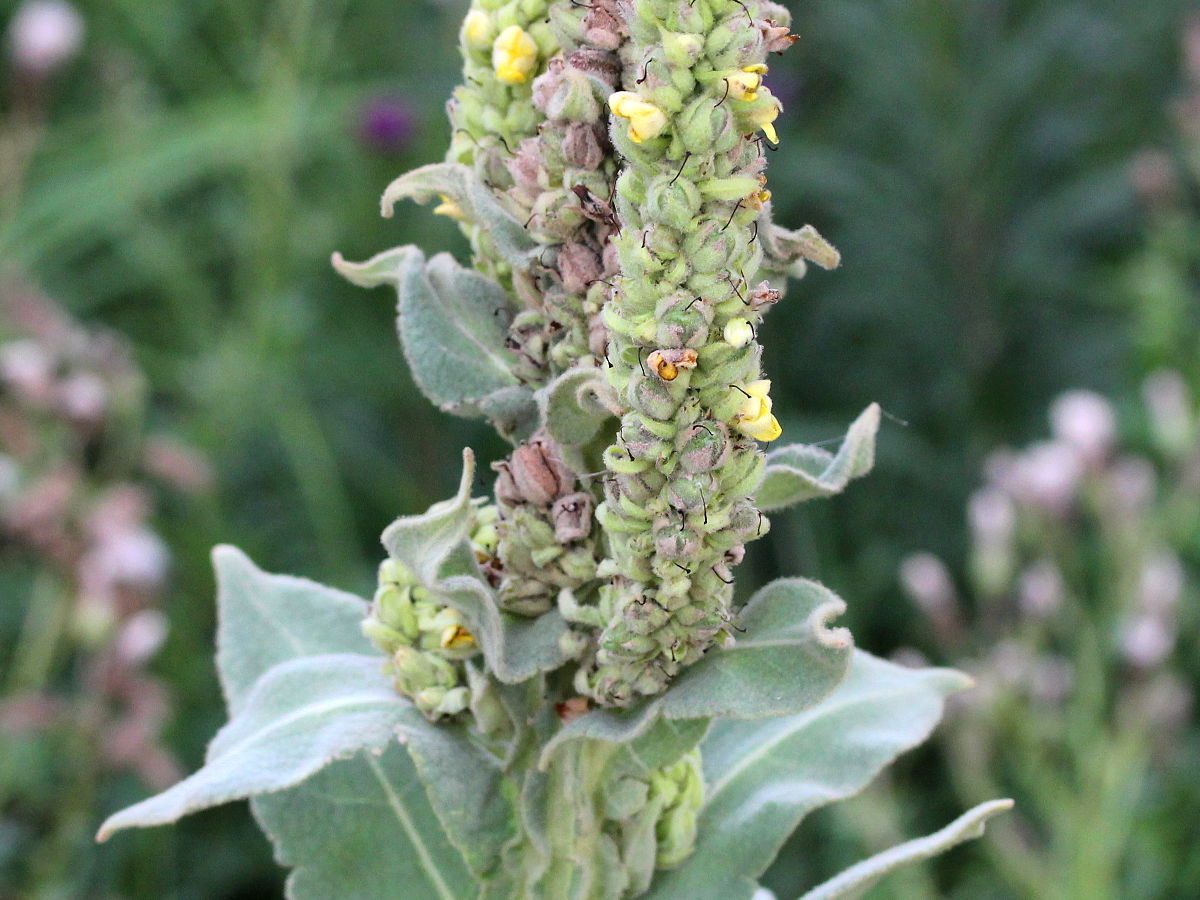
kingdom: Plantae
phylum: Tracheophyta
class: Magnoliopsida
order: Lamiales
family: Scrophulariaceae
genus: Verbascum
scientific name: Verbascum thapsus
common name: Common mullein
